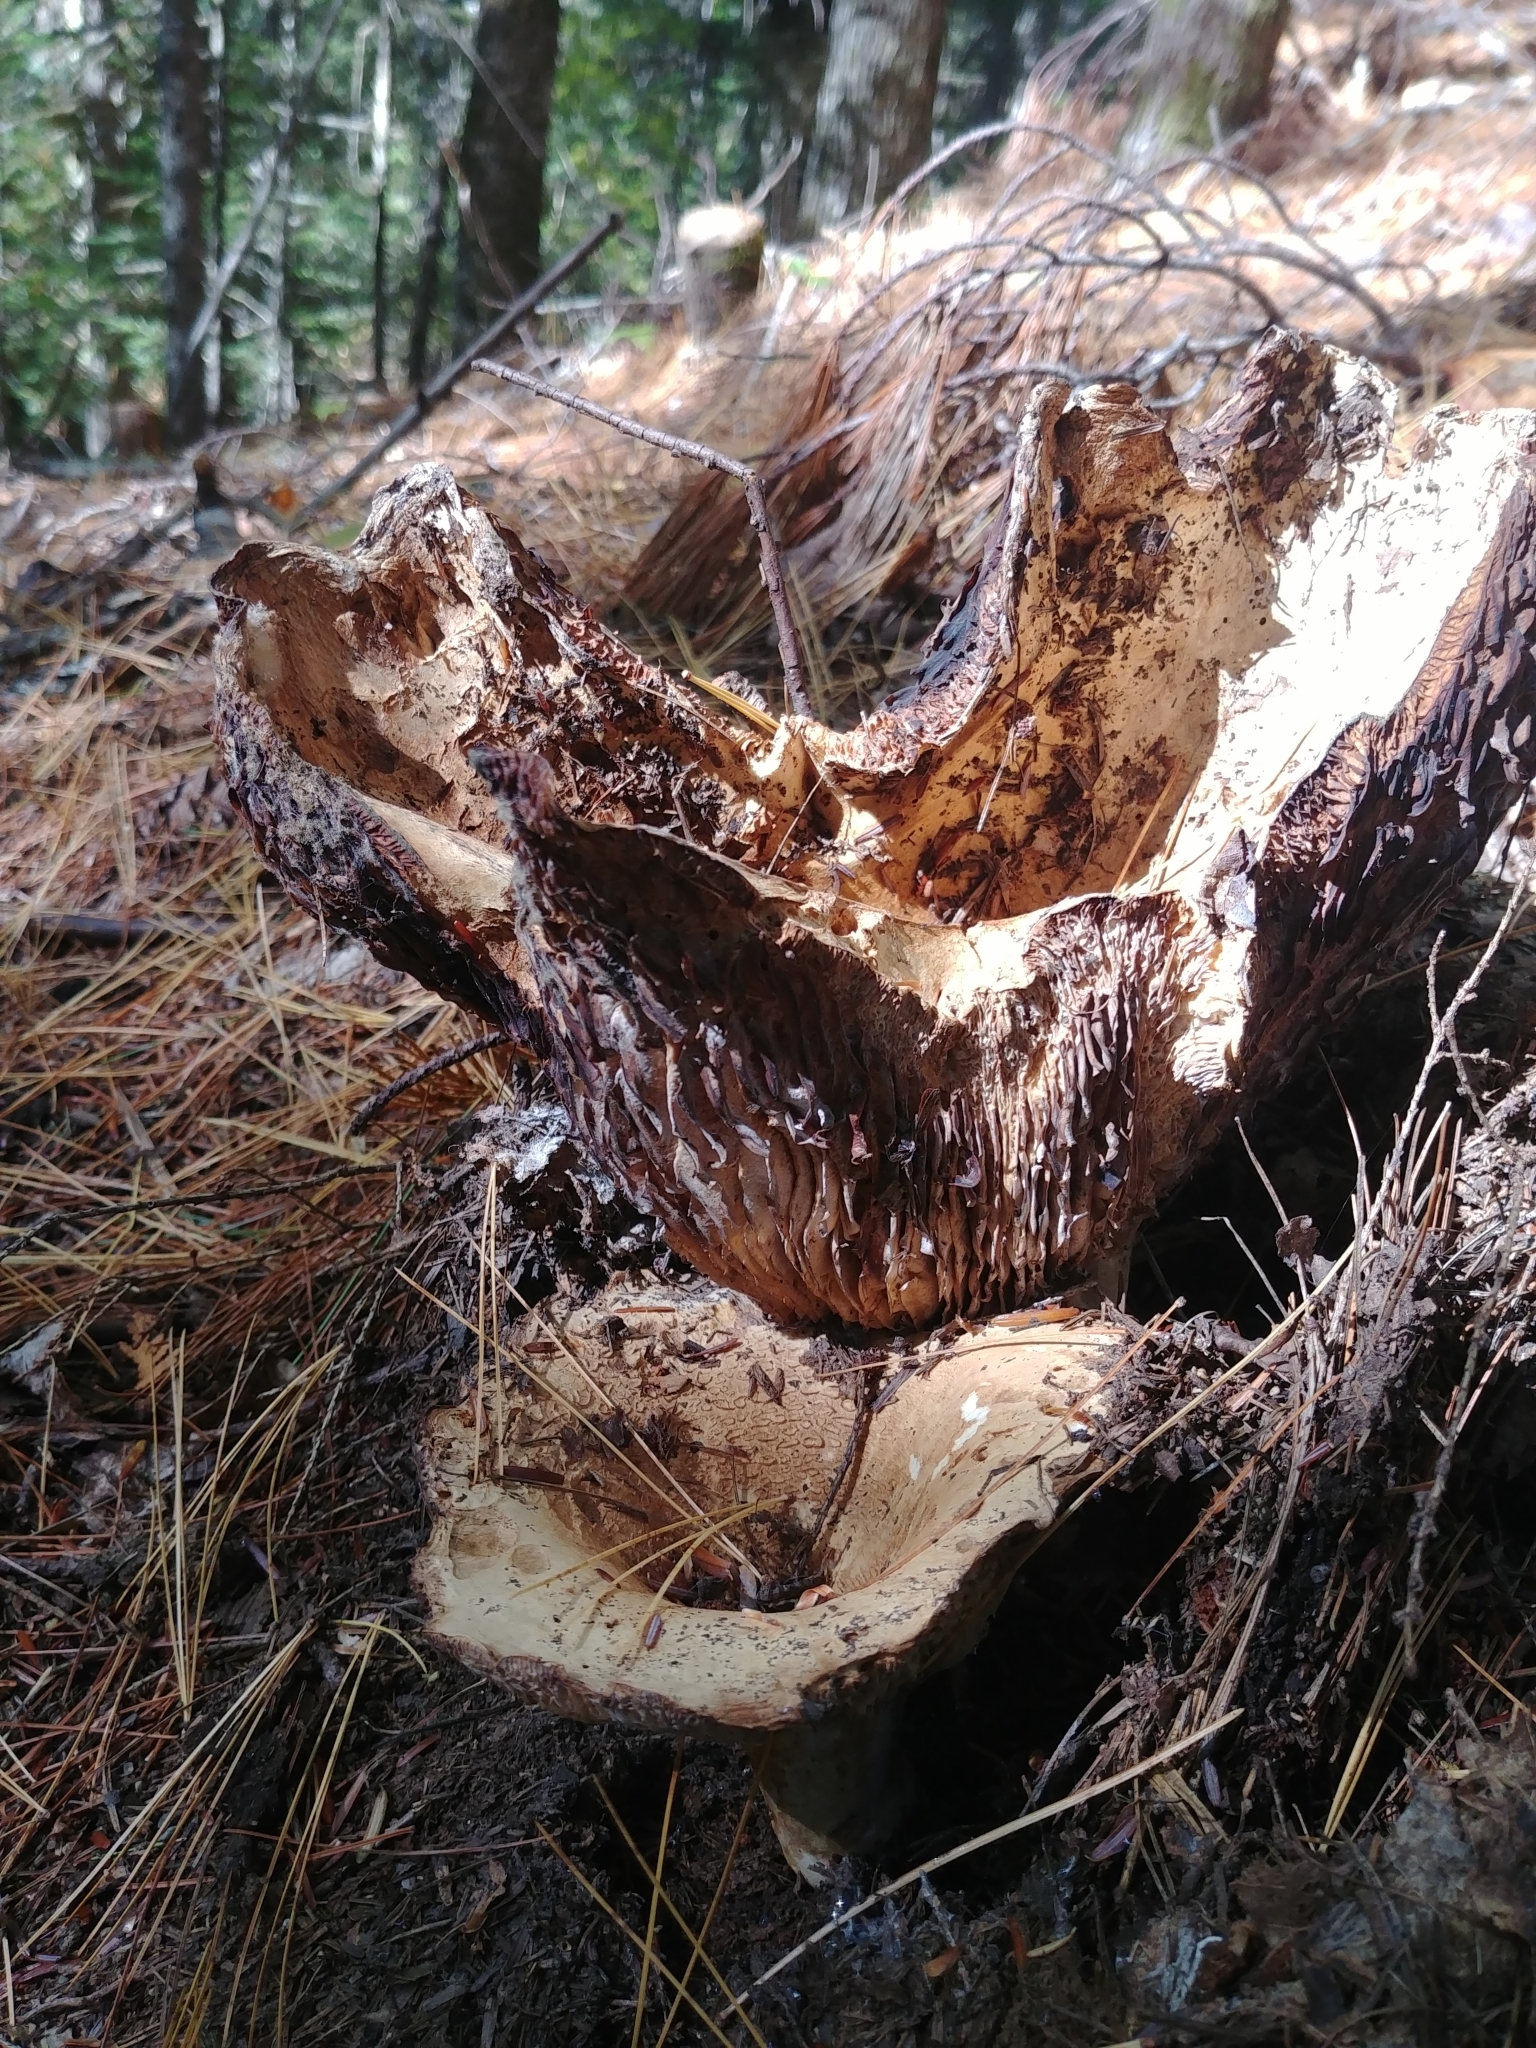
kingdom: Fungi
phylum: Basidiomycota
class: Agaricomycetes
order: Russulales
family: Russulaceae
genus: Russula
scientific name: Russula brevipes
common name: Short-stemmed russula
